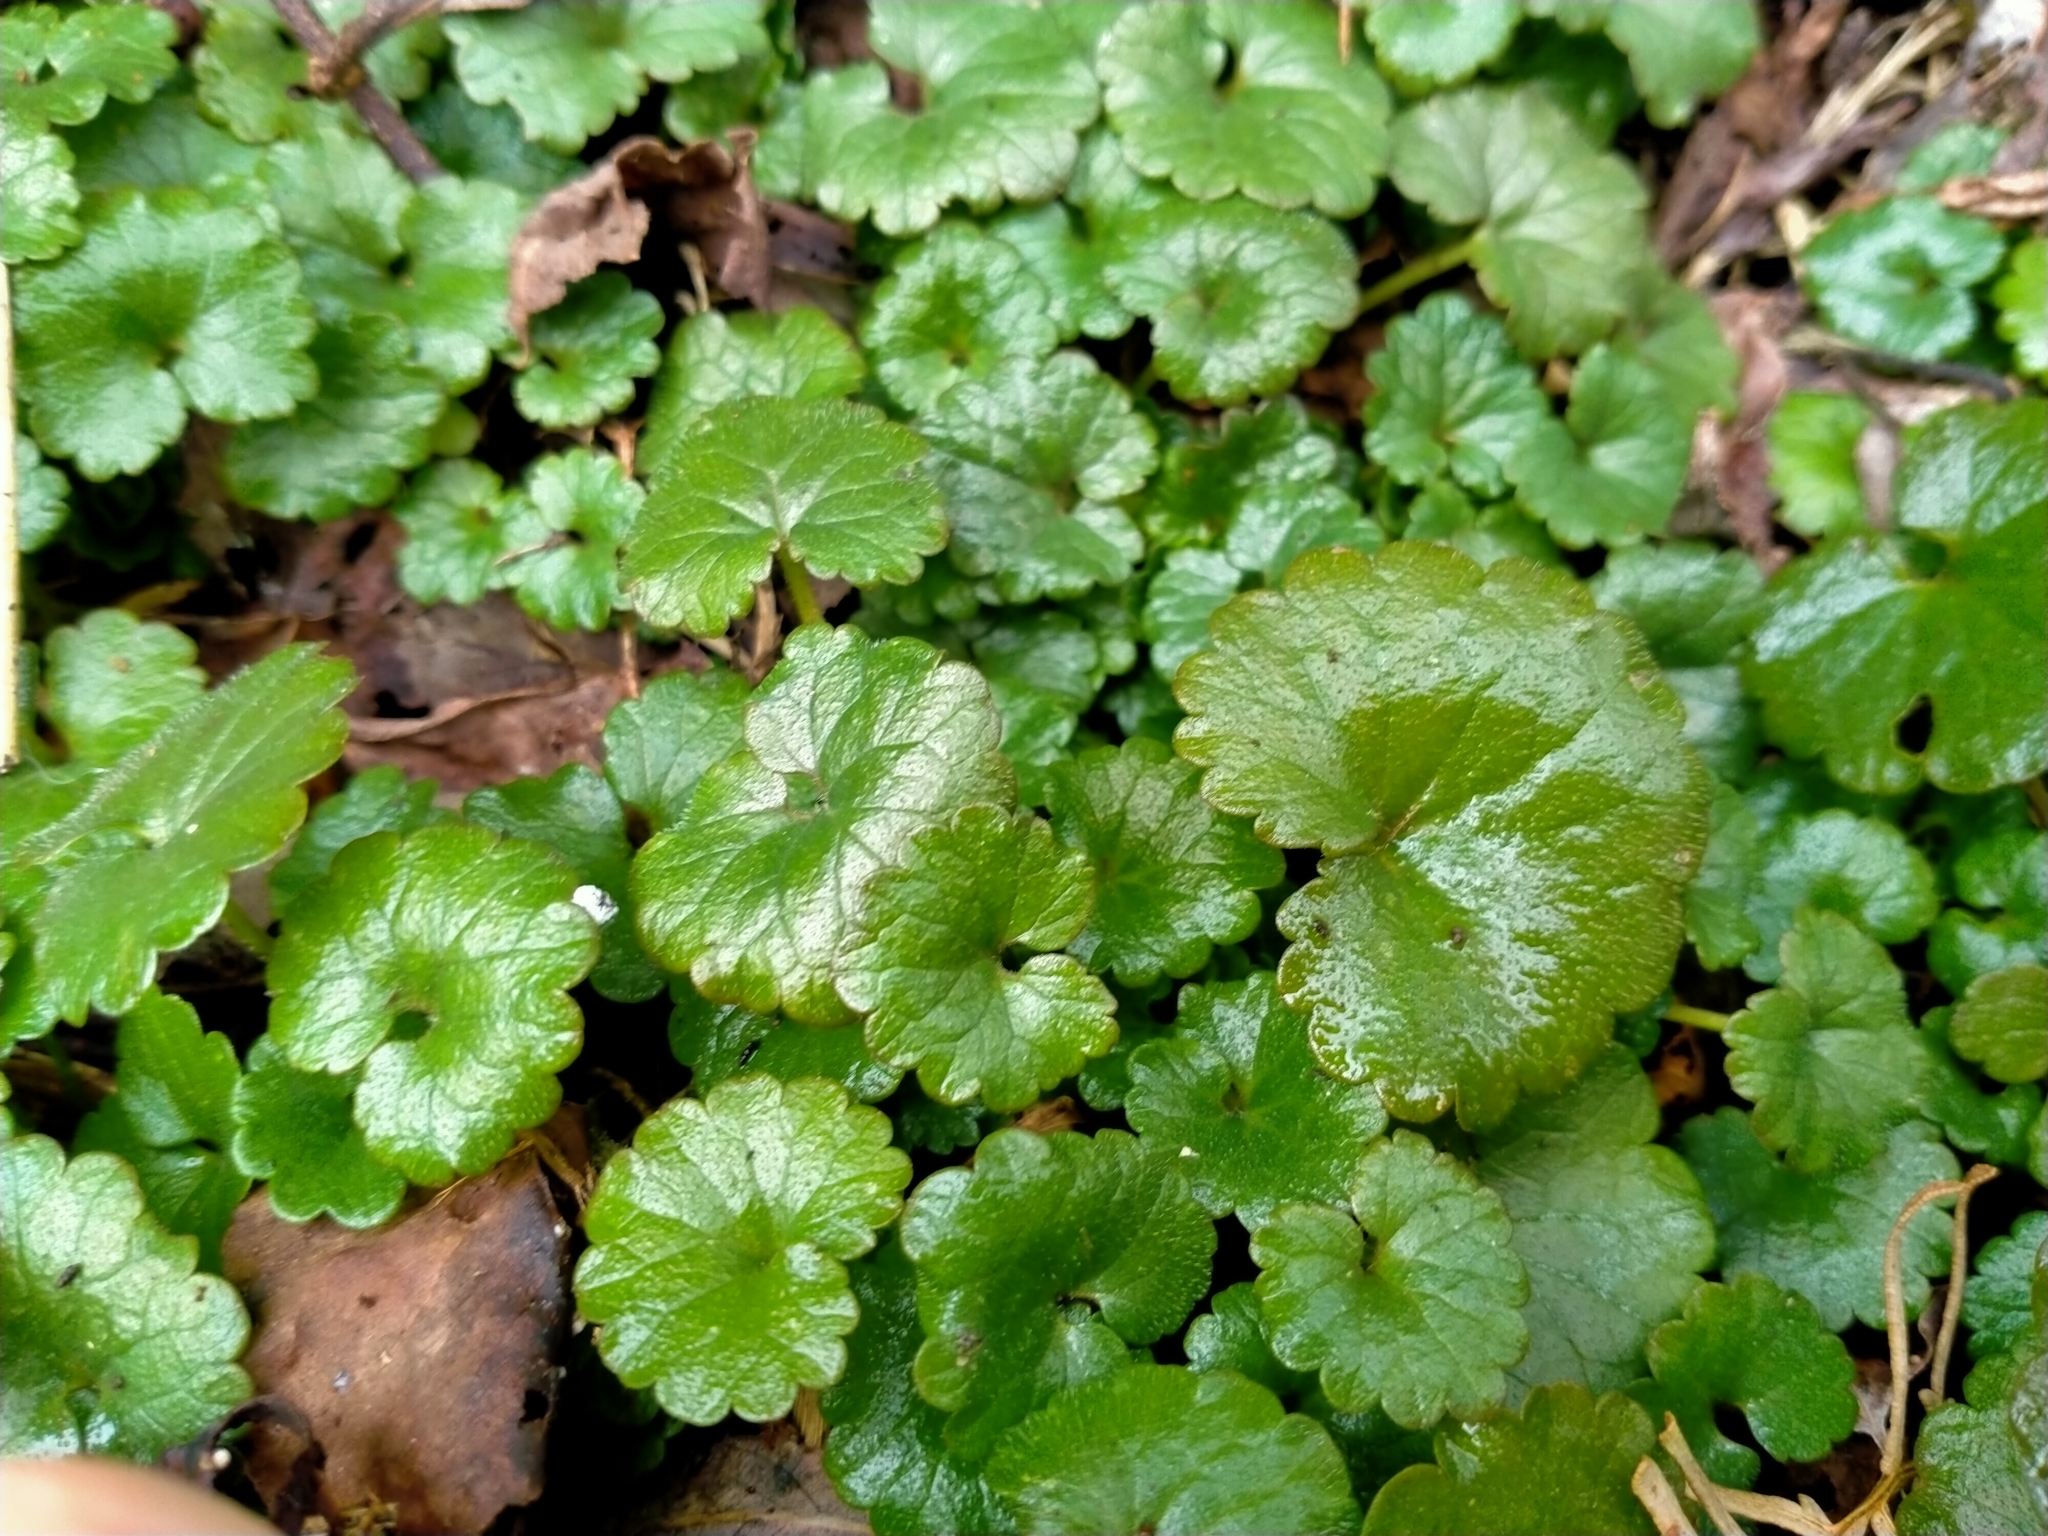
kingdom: Plantae
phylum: Tracheophyta
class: Magnoliopsida
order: Lamiales
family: Lamiaceae
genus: Glechoma
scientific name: Glechoma hederacea
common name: Ground ivy
